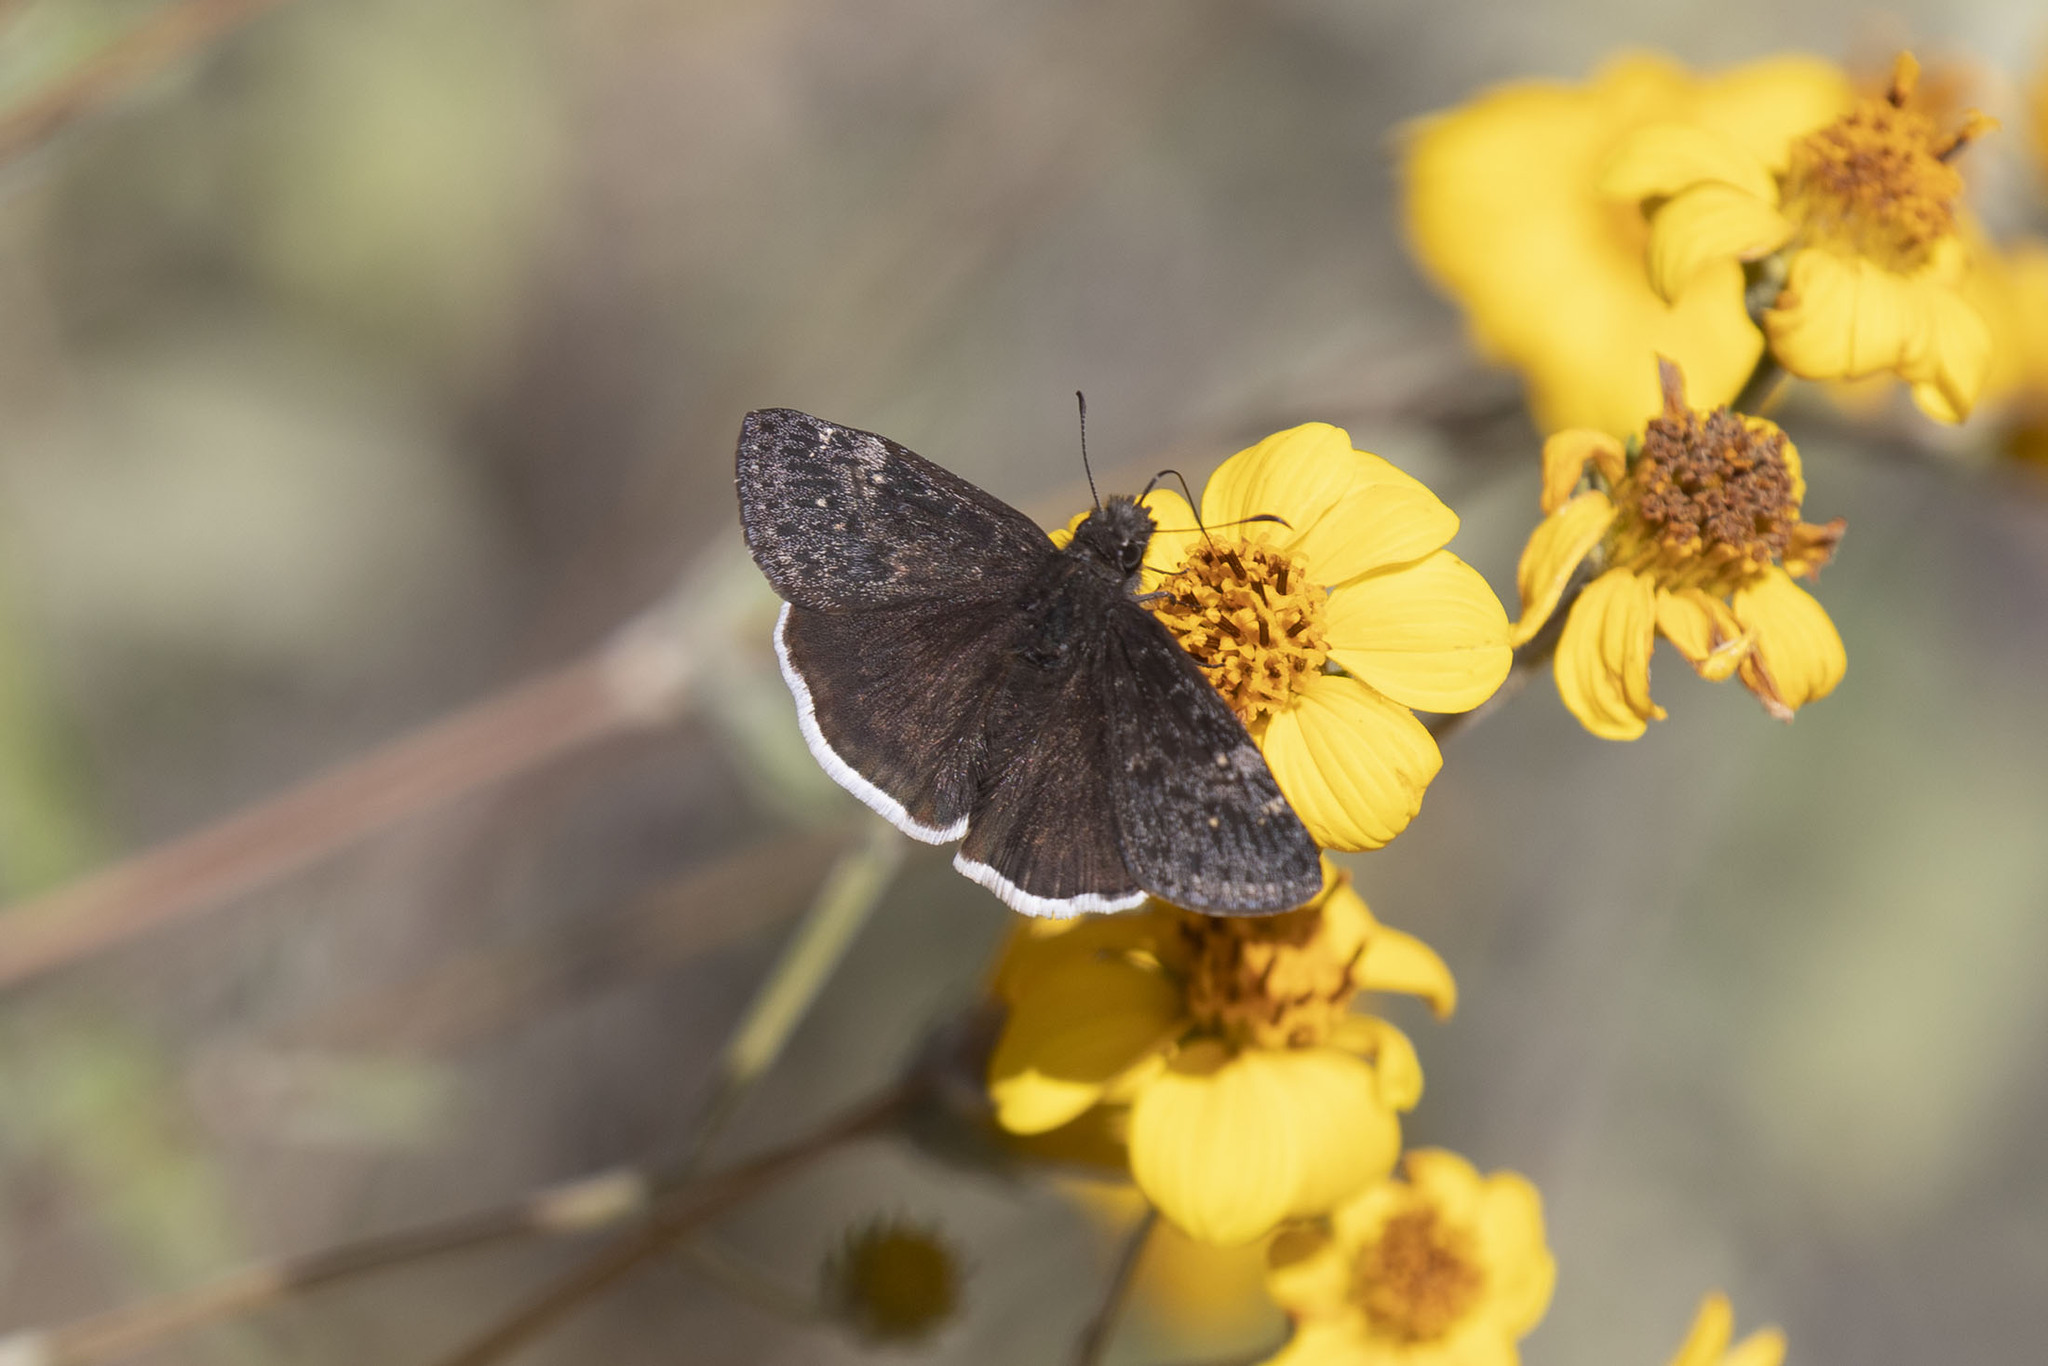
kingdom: Animalia
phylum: Arthropoda
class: Insecta
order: Lepidoptera
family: Hesperiidae
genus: Erynnis
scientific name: Erynnis funeralis
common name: Funereal duskywing
